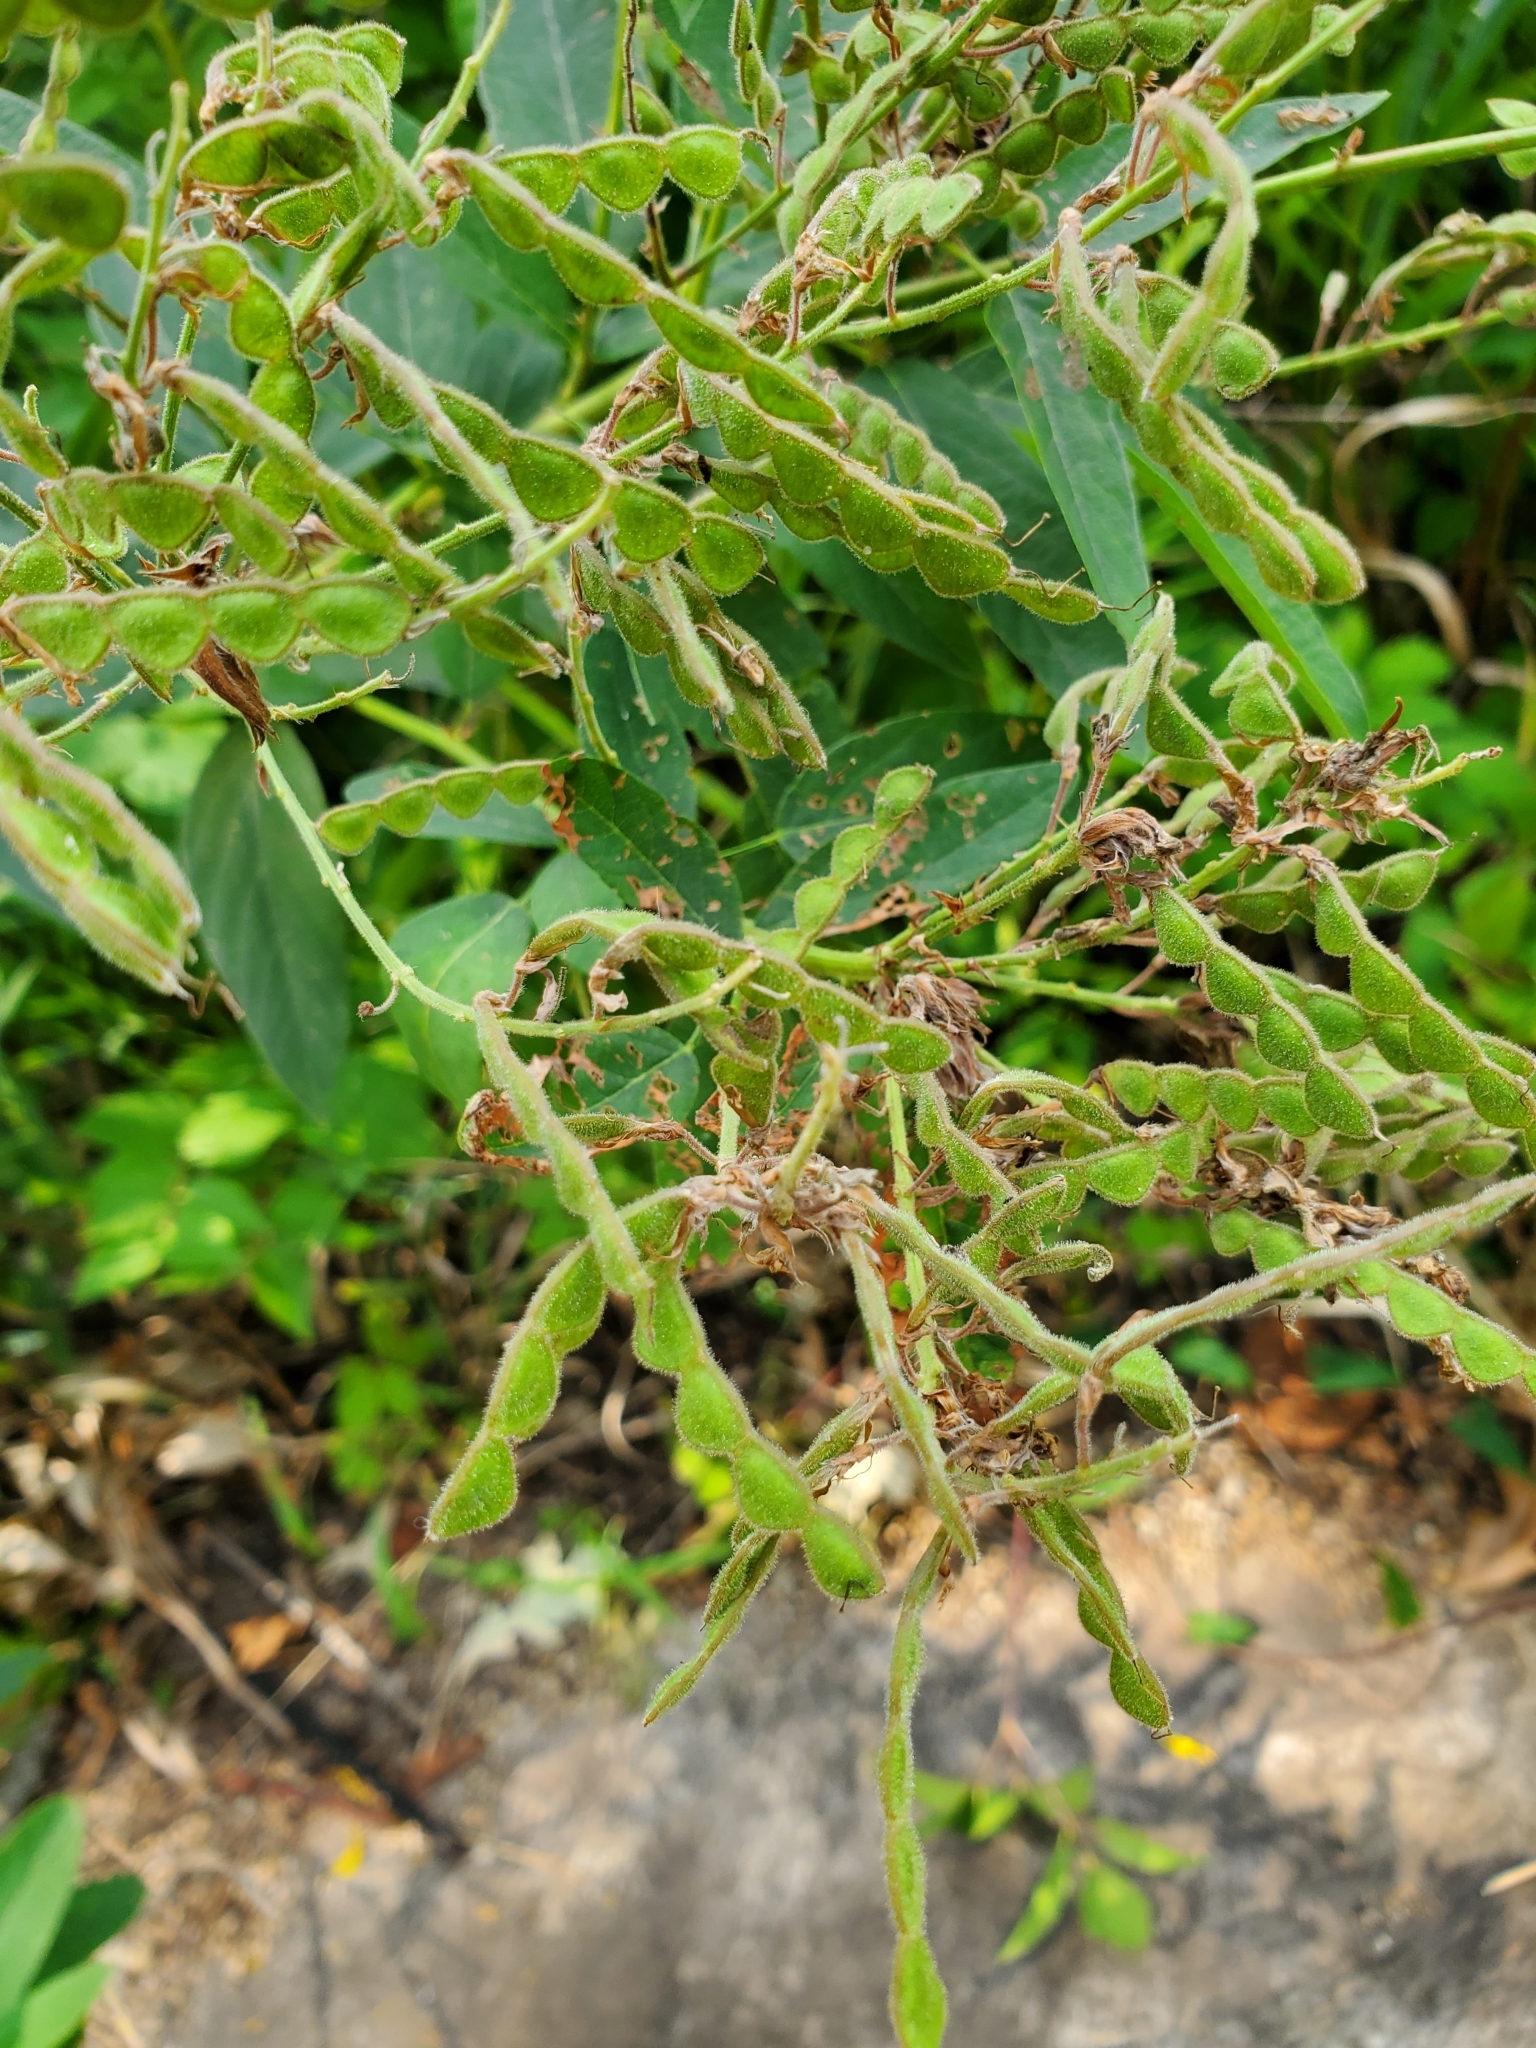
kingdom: Plantae
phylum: Tracheophyta
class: Magnoliopsida
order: Fabales
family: Fabaceae
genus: Desmodium
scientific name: Desmodium canadense
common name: Canada tick-trefoil
